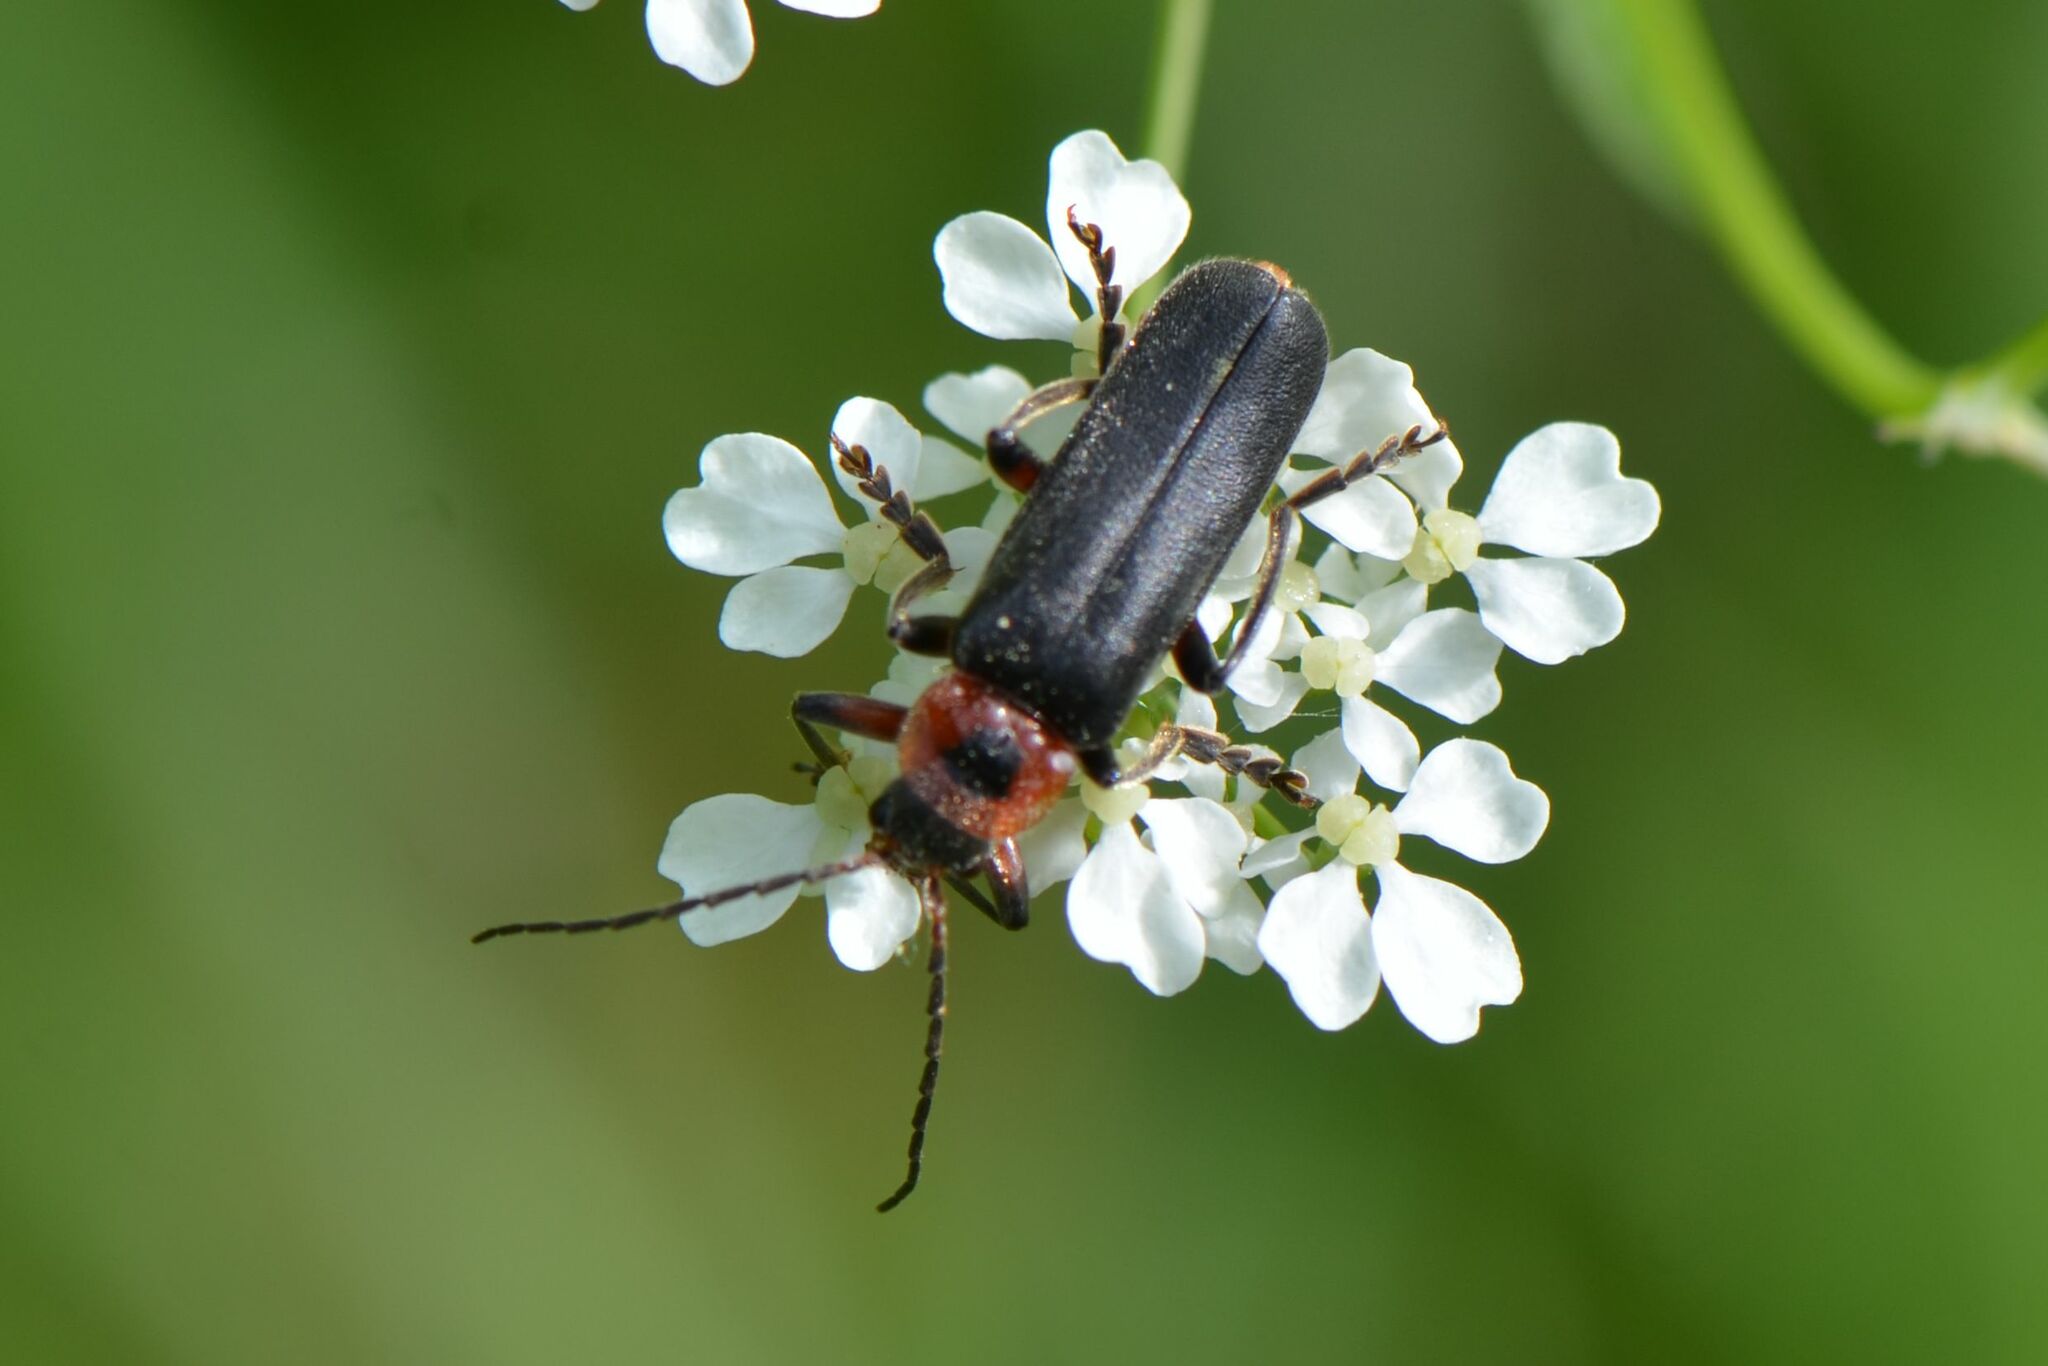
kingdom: Animalia
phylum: Arthropoda
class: Insecta
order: Coleoptera
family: Cantharidae
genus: Cantharis
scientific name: Cantharis rustica
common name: Soldier beetle
